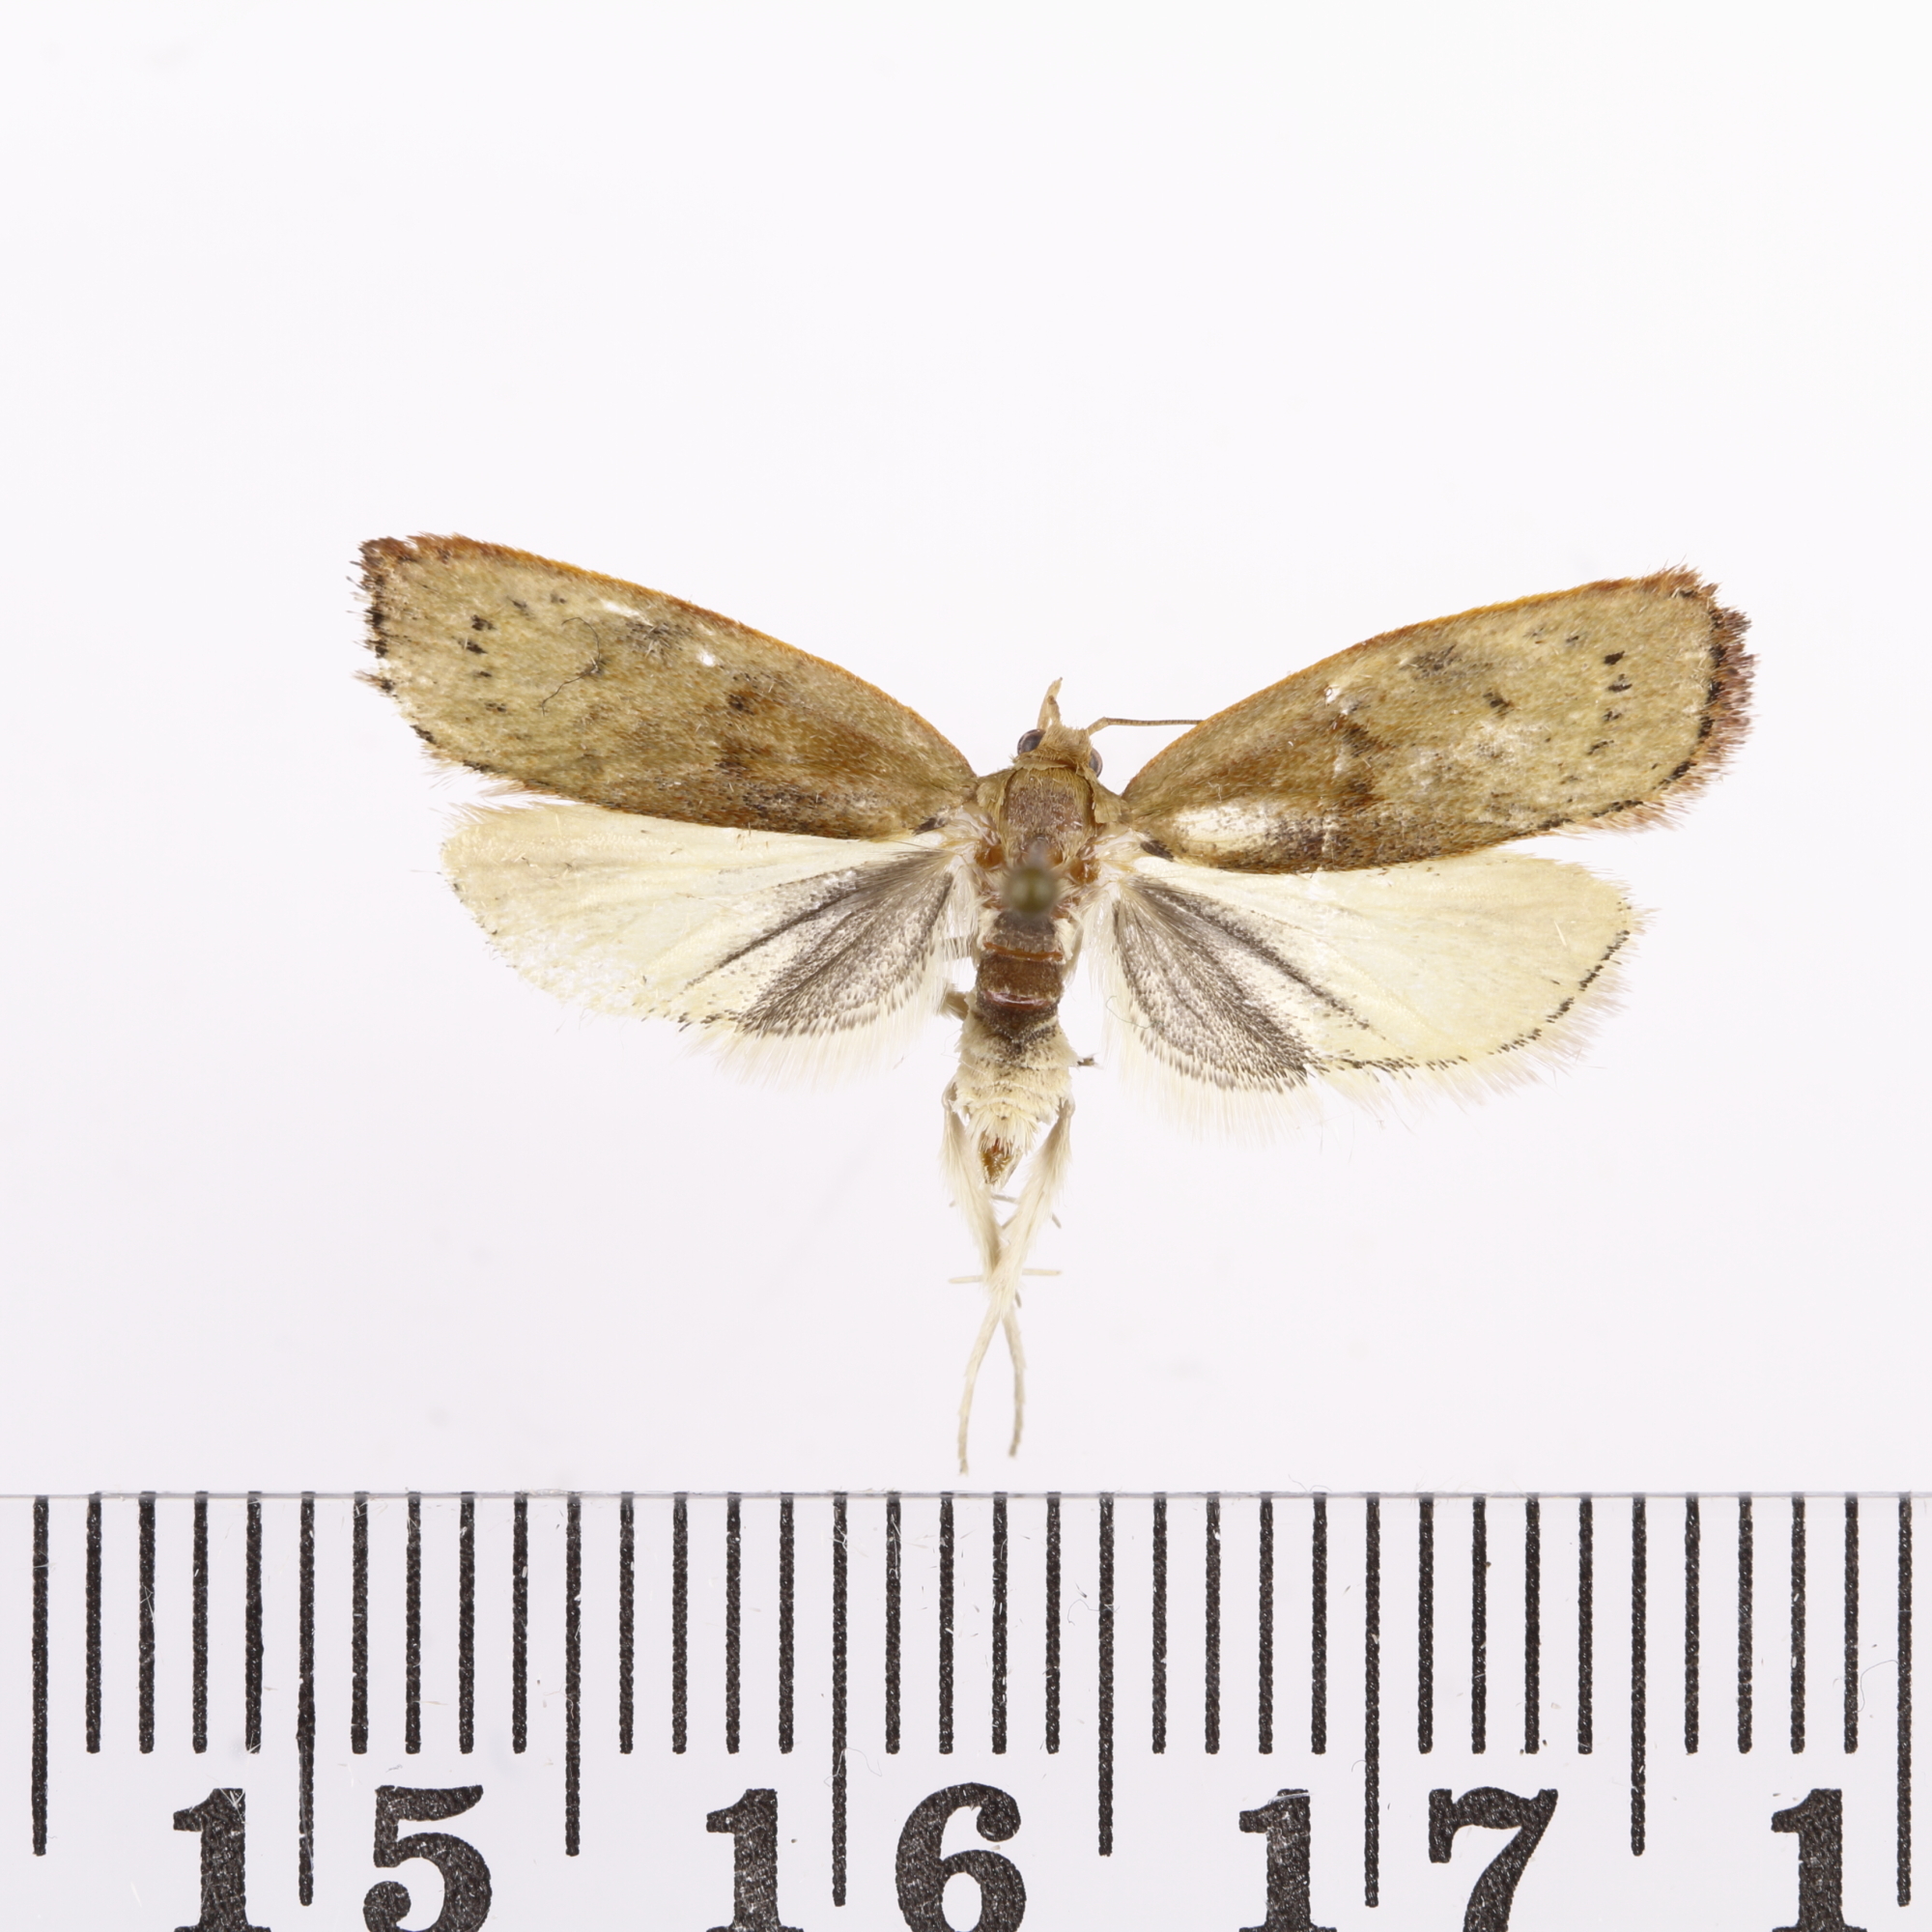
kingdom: Animalia
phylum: Arthropoda
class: Insecta
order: Lepidoptera
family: Depressariidae
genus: Phaeosaces
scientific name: Phaeosaces coarctatella
